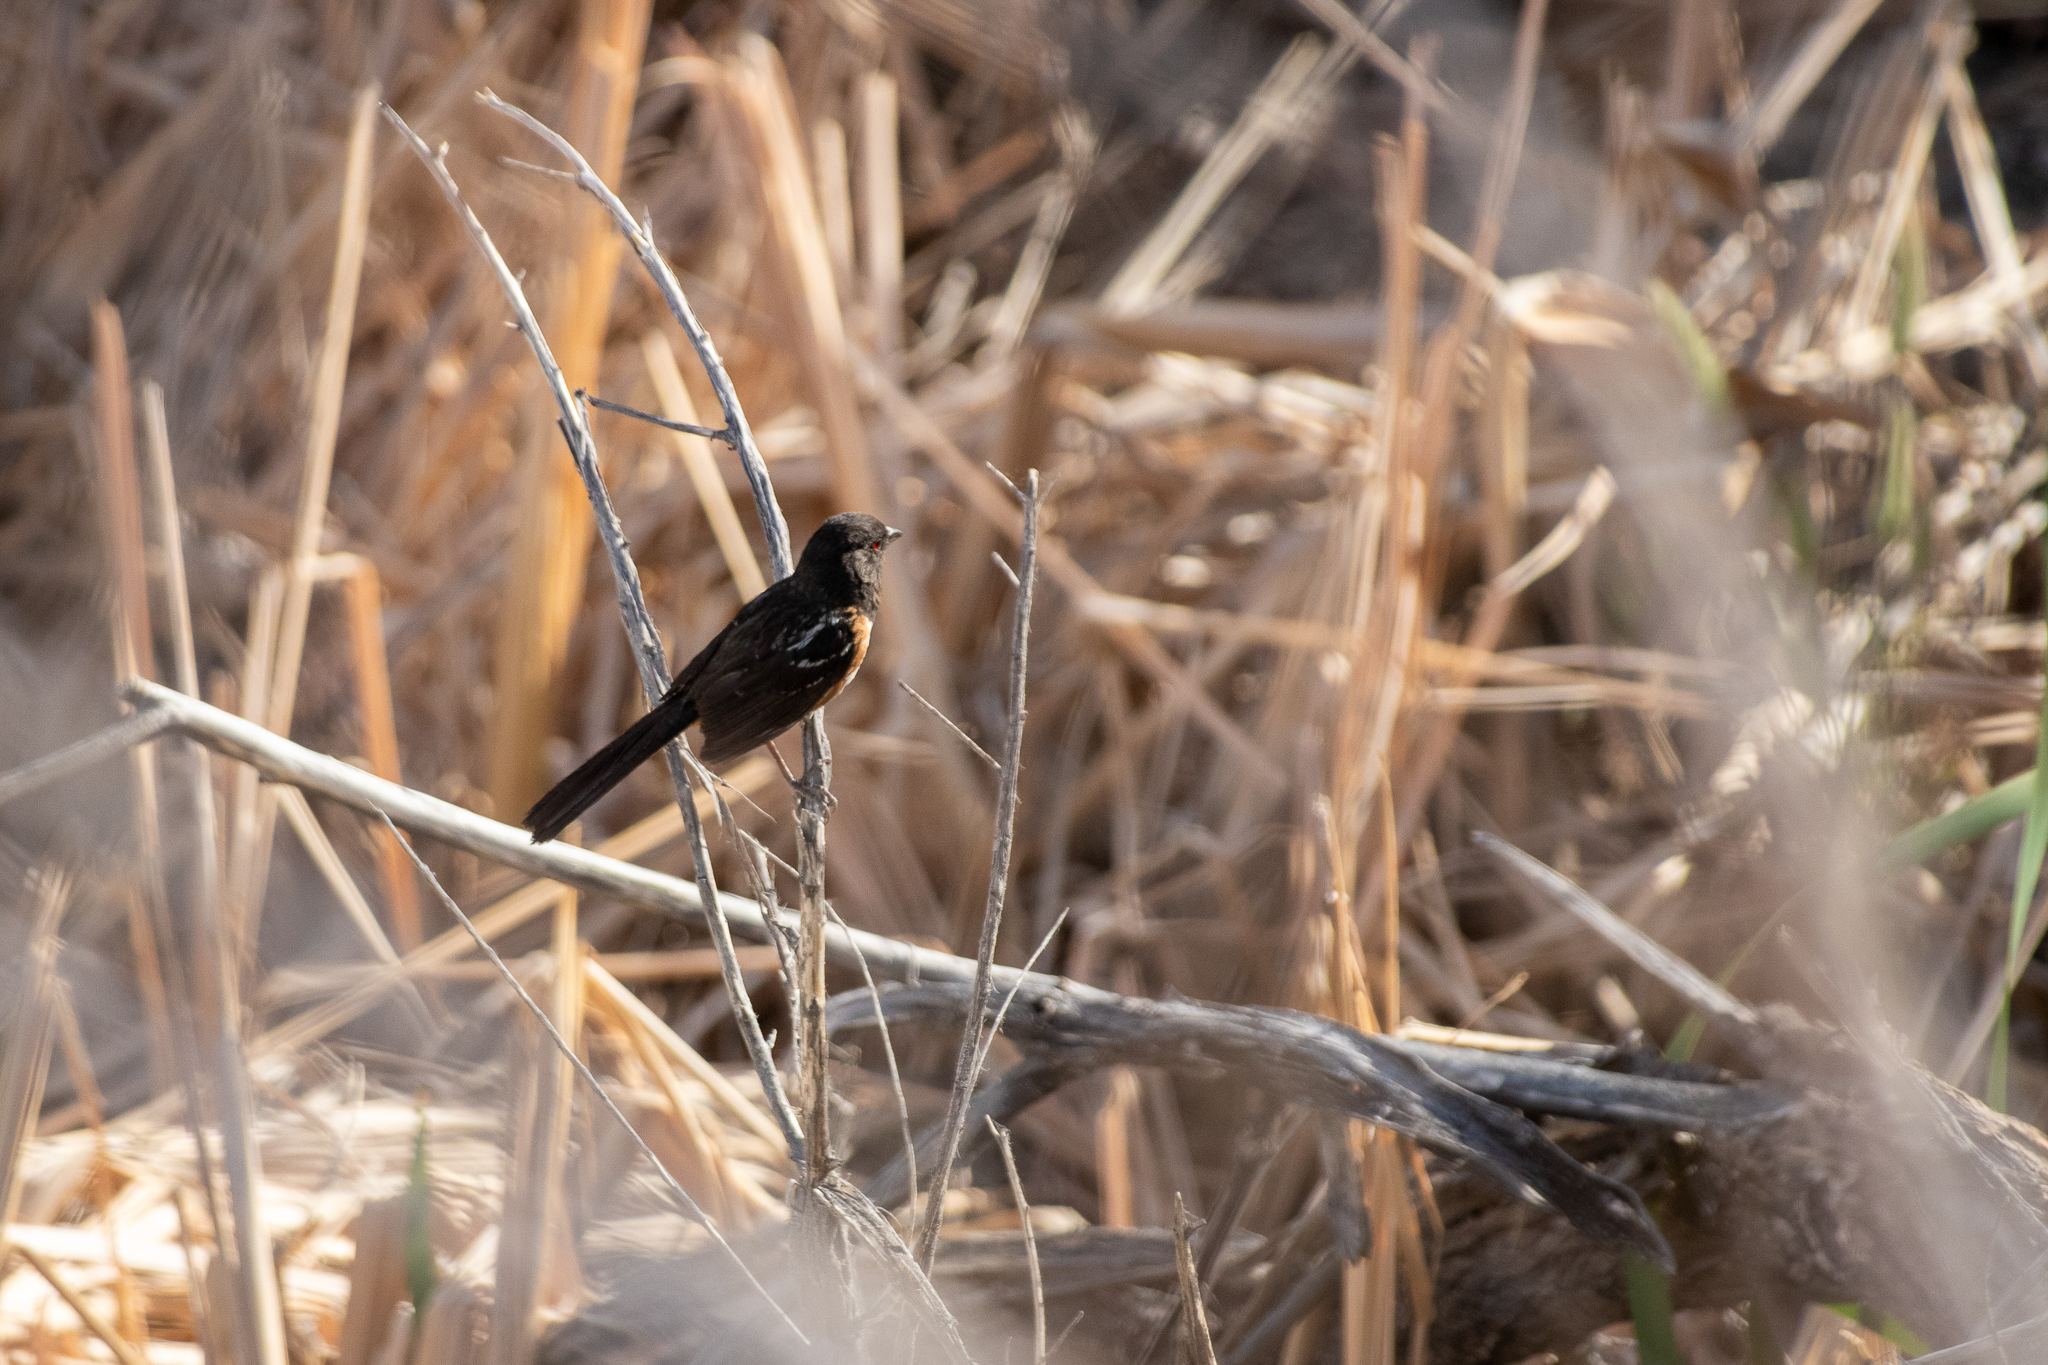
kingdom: Animalia
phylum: Chordata
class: Aves
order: Passeriformes
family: Passerellidae
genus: Pipilo
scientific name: Pipilo maculatus
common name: Spotted towhee
